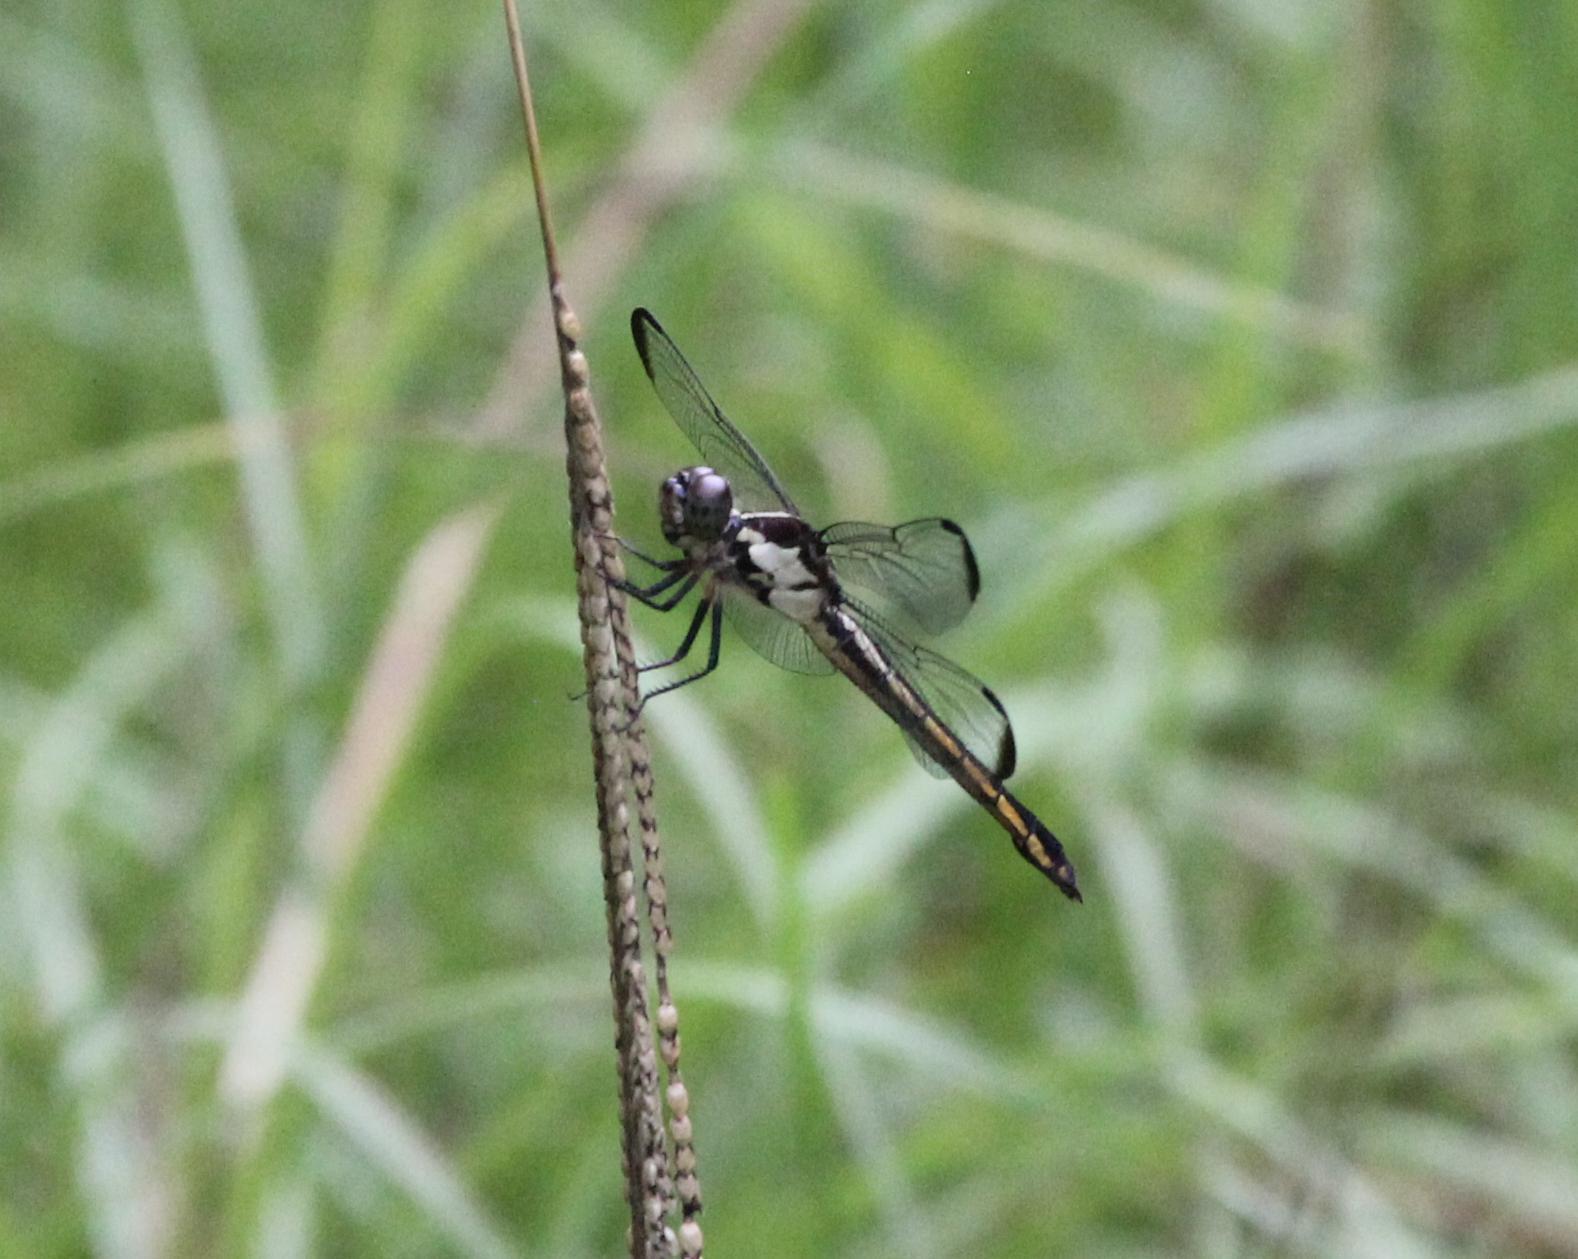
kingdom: Animalia
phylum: Arthropoda
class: Insecta
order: Odonata
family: Libellulidae
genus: Libellula
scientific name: Libellula incesta
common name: Slaty skimmer
